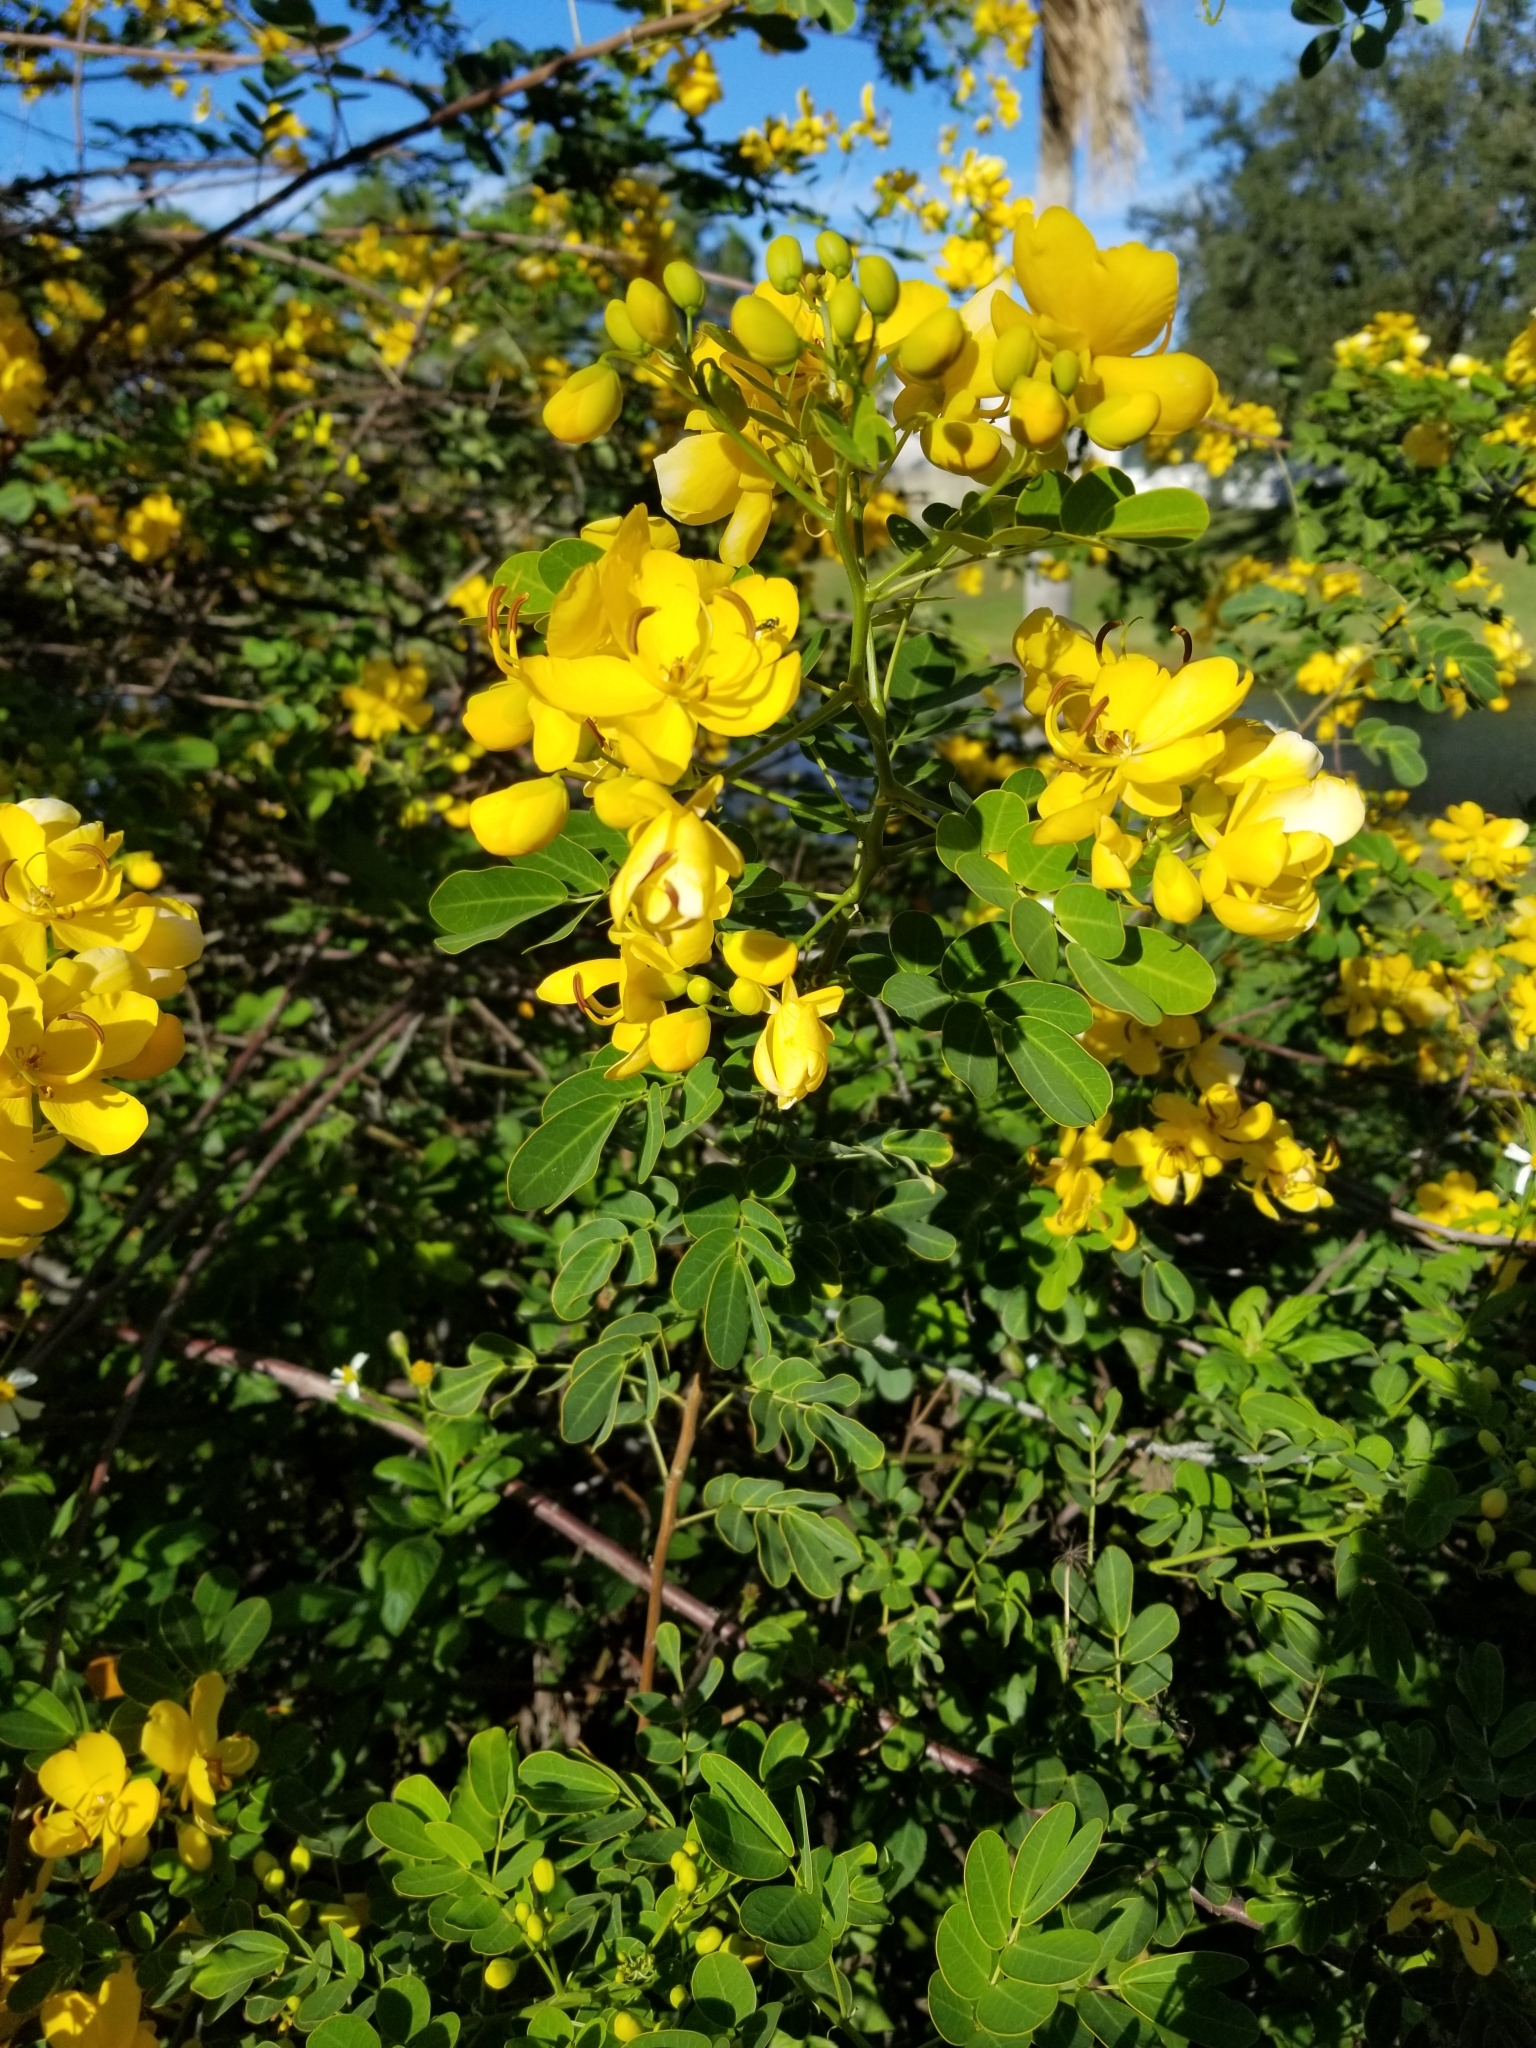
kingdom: Plantae
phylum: Tracheophyta
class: Magnoliopsida
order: Fabales
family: Fabaceae
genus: Senna
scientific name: Senna pendula
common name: Easter cassia
